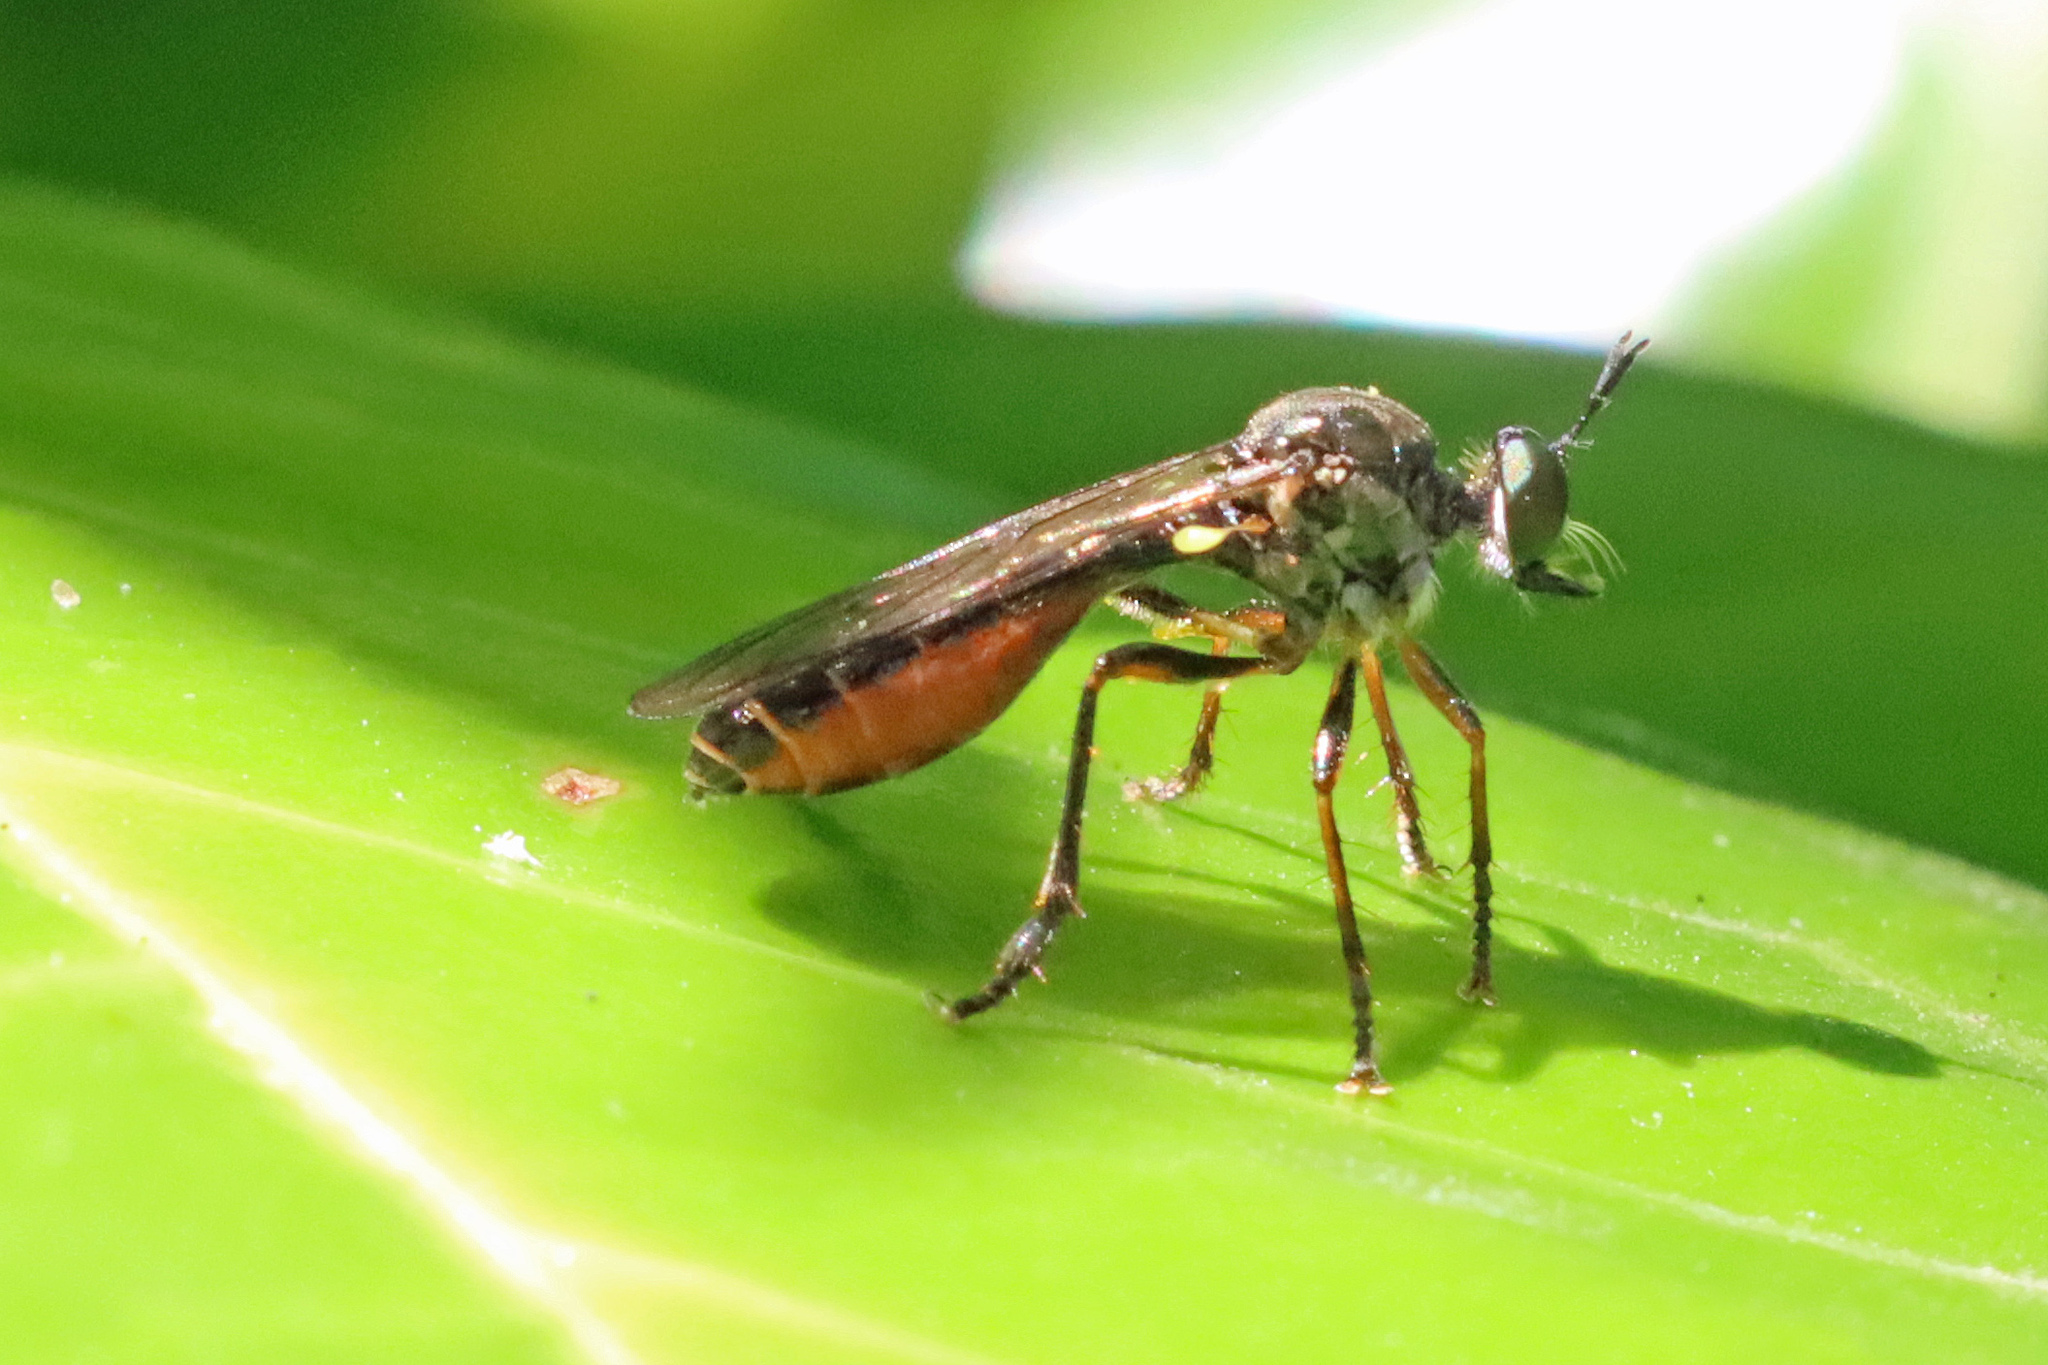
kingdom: Animalia
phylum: Arthropoda
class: Insecta
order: Diptera
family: Asilidae
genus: Dioctria
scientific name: Dioctria hyalipennis
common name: Stripe-legged robberfly
